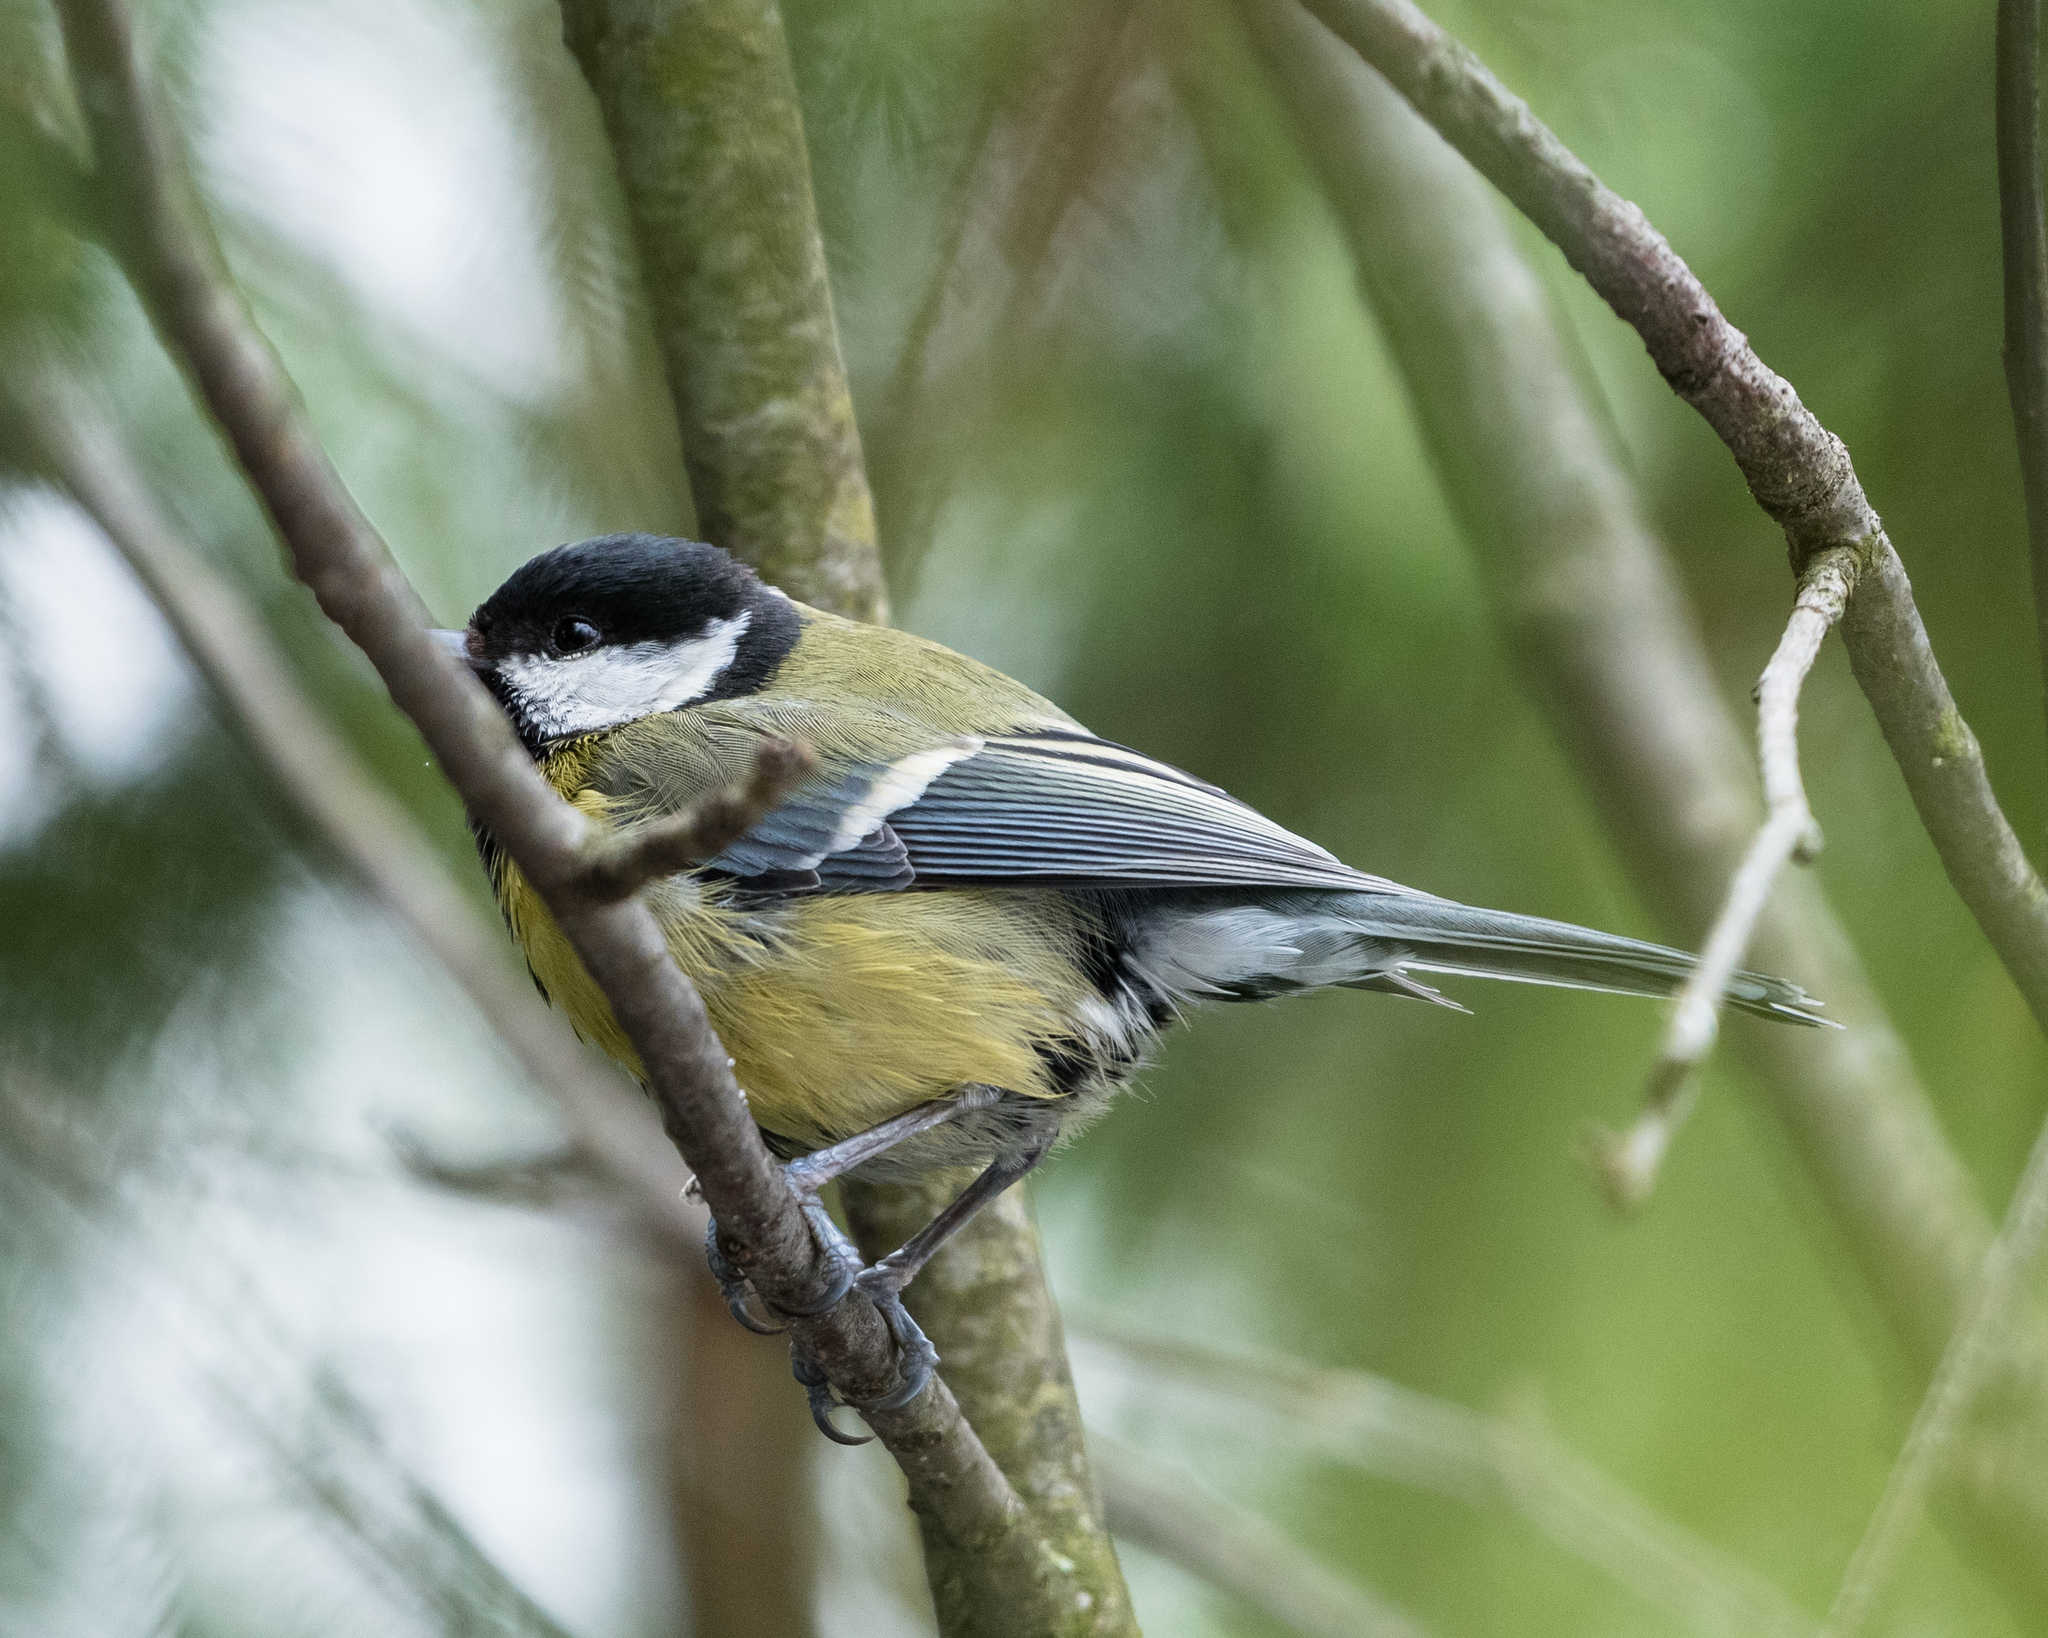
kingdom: Animalia
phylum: Chordata
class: Aves
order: Passeriformes
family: Paridae
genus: Parus
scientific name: Parus major
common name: Great tit
